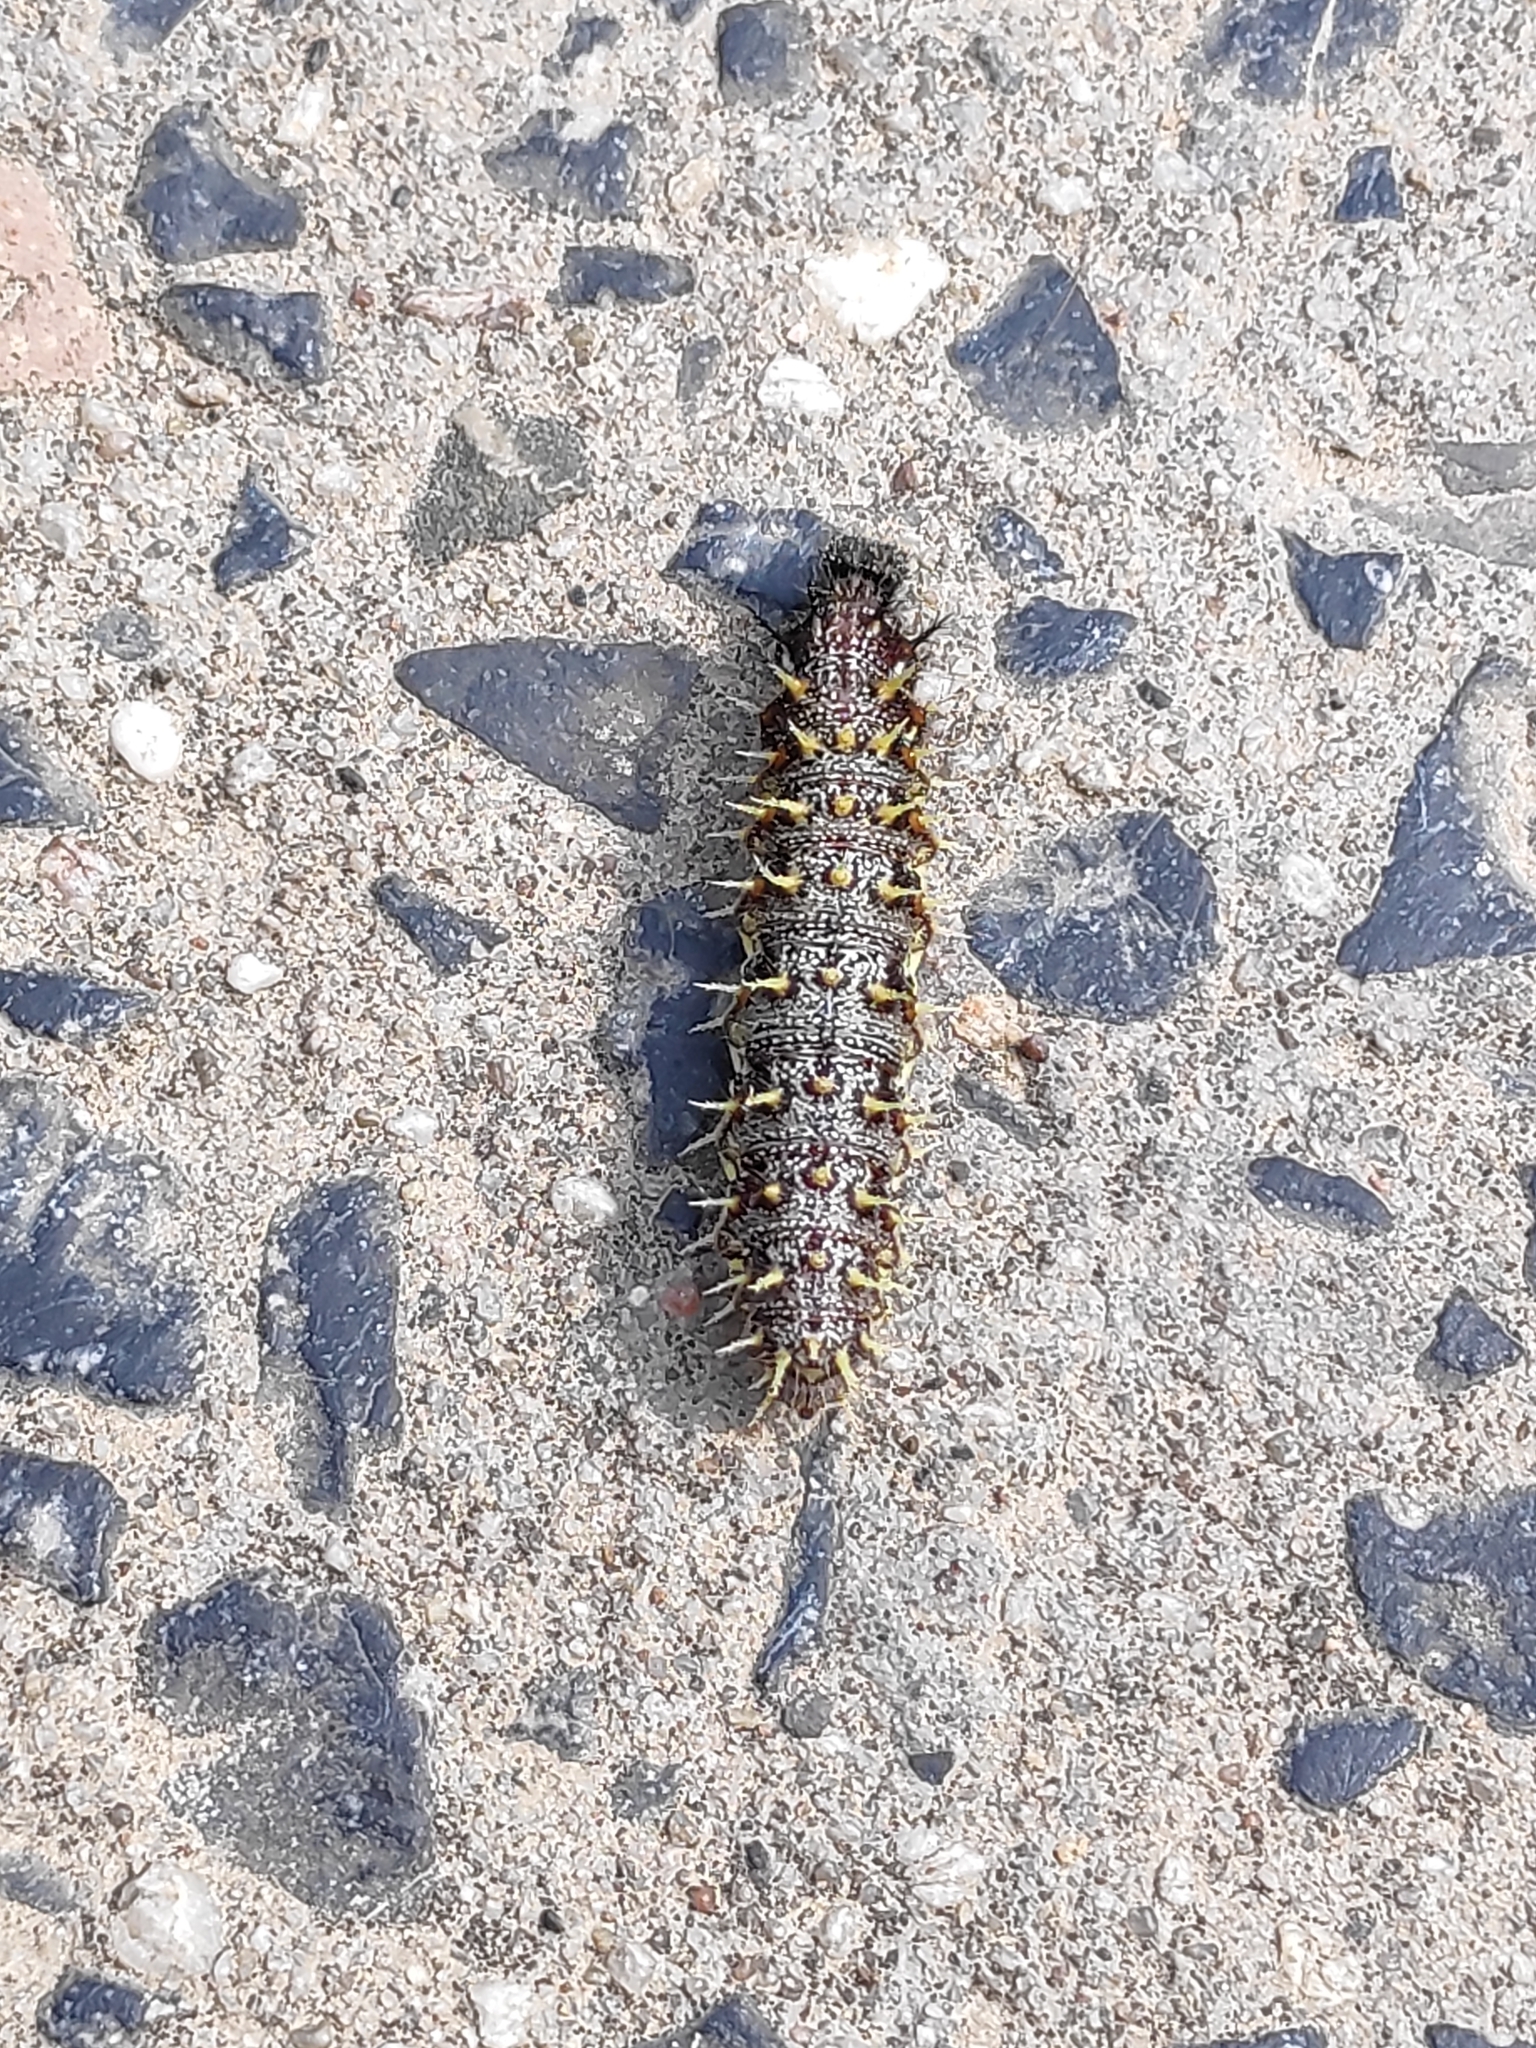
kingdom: Animalia
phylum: Arthropoda
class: Insecta
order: Lepidoptera
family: Nymphalidae
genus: Vanessa
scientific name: Vanessa atalanta
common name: Red admiral
